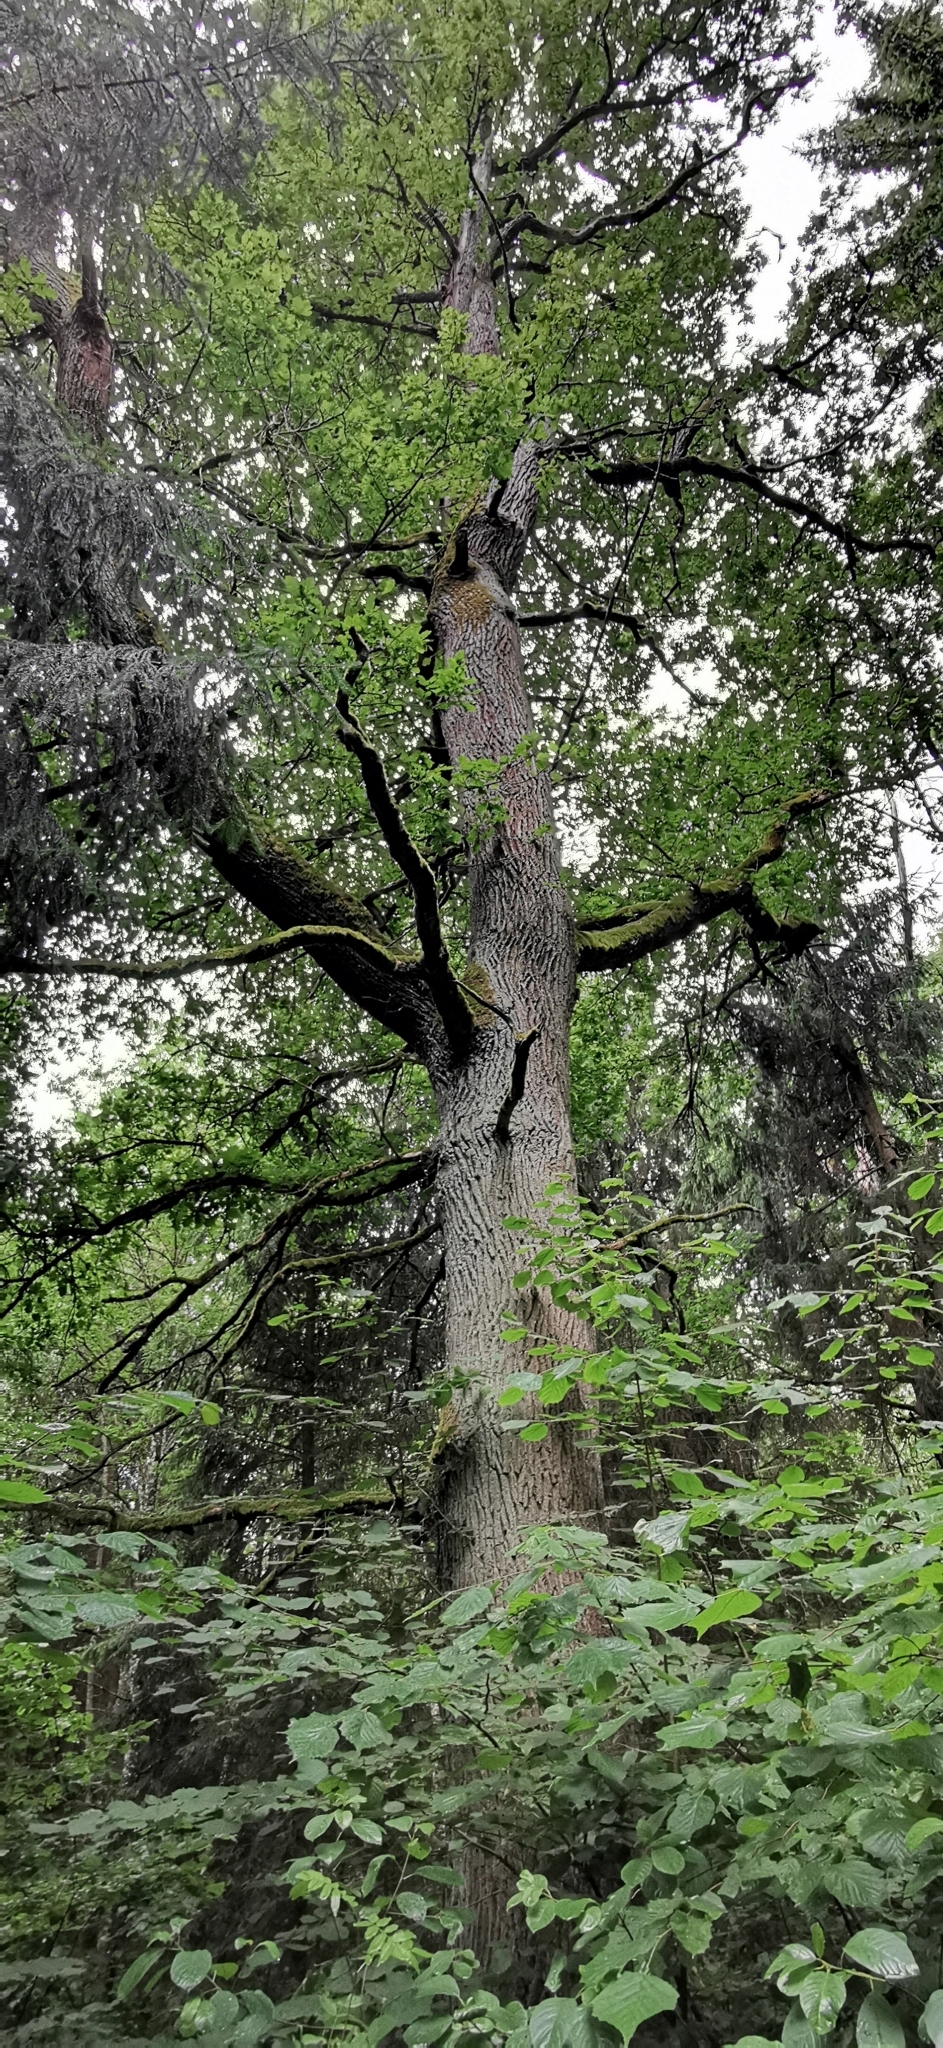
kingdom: Plantae
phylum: Tracheophyta
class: Magnoliopsida
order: Fagales
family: Fagaceae
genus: Quercus
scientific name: Quercus robur
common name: Pedunculate oak
